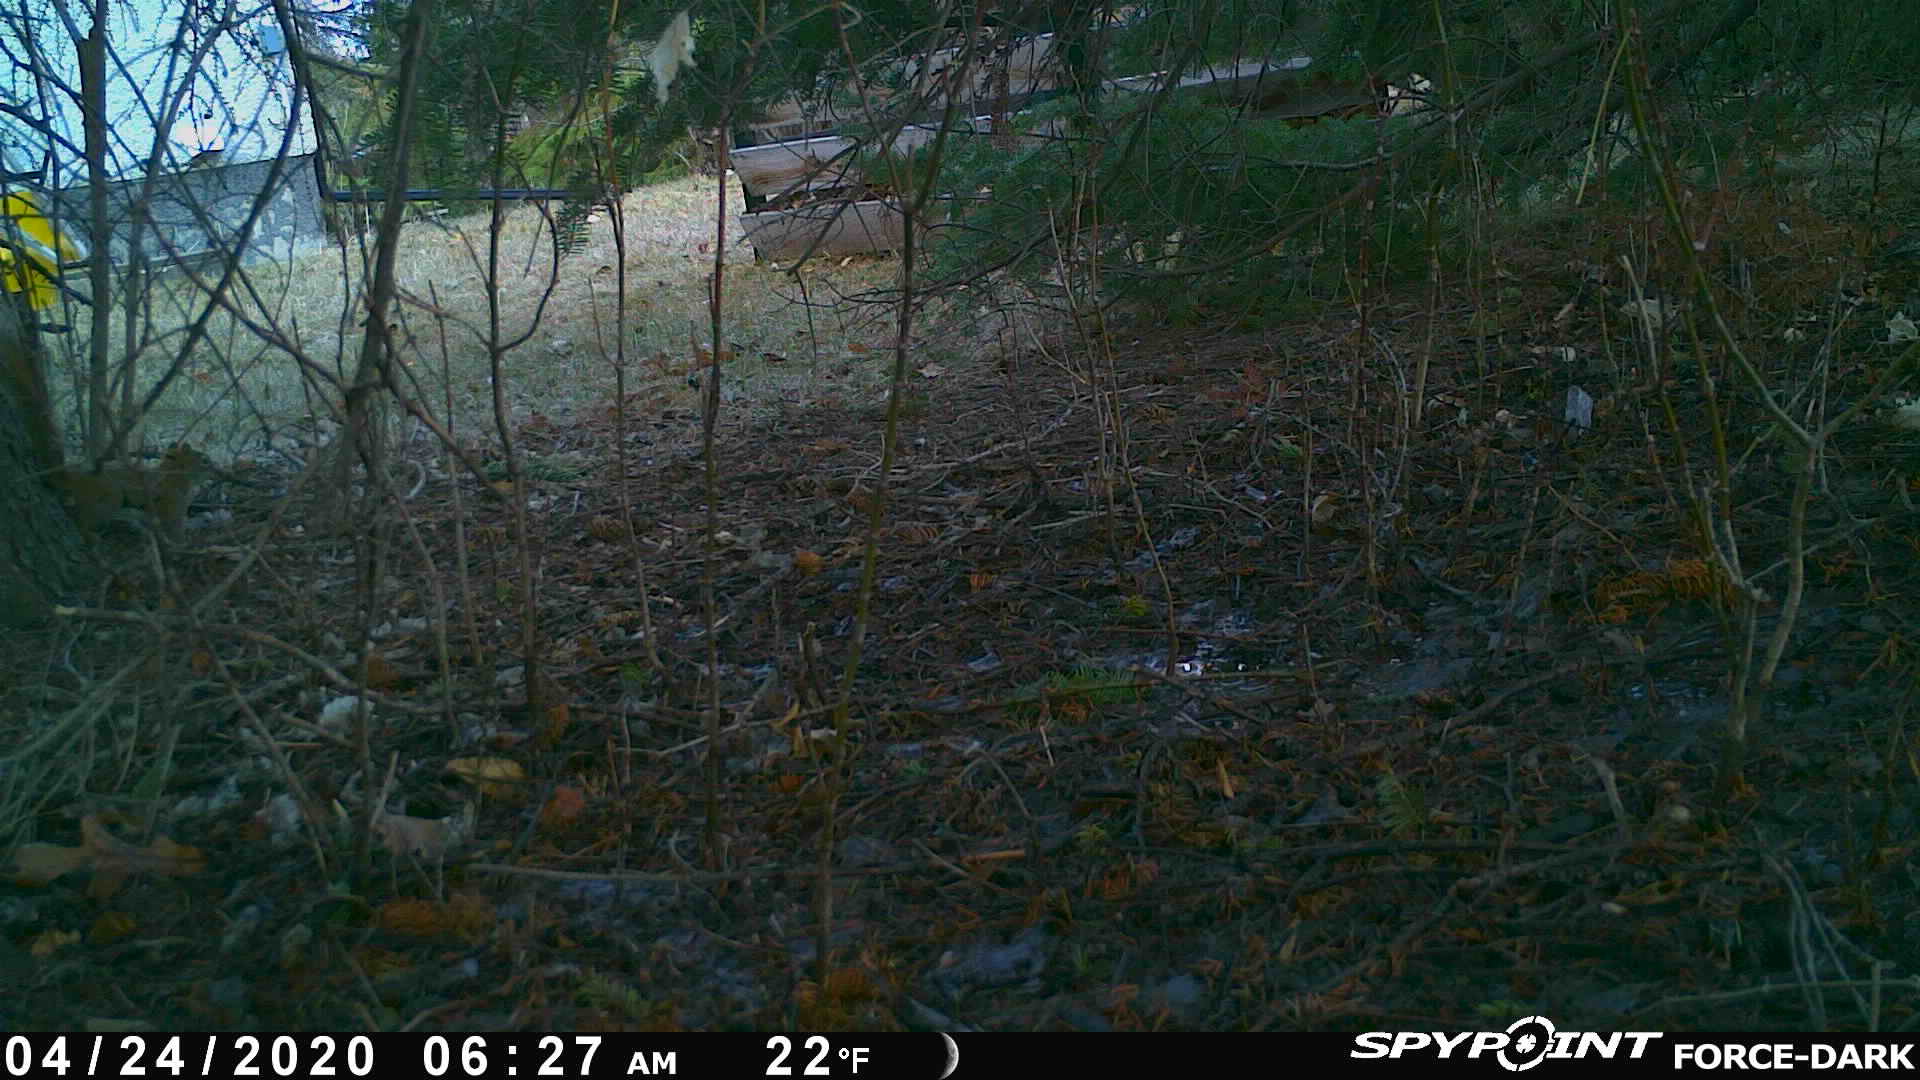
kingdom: Animalia
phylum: Chordata
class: Mammalia
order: Rodentia
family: Sciuridae
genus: Tamiasciurus
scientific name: Tamiasciurus hudsonicus
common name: Red squirrel
